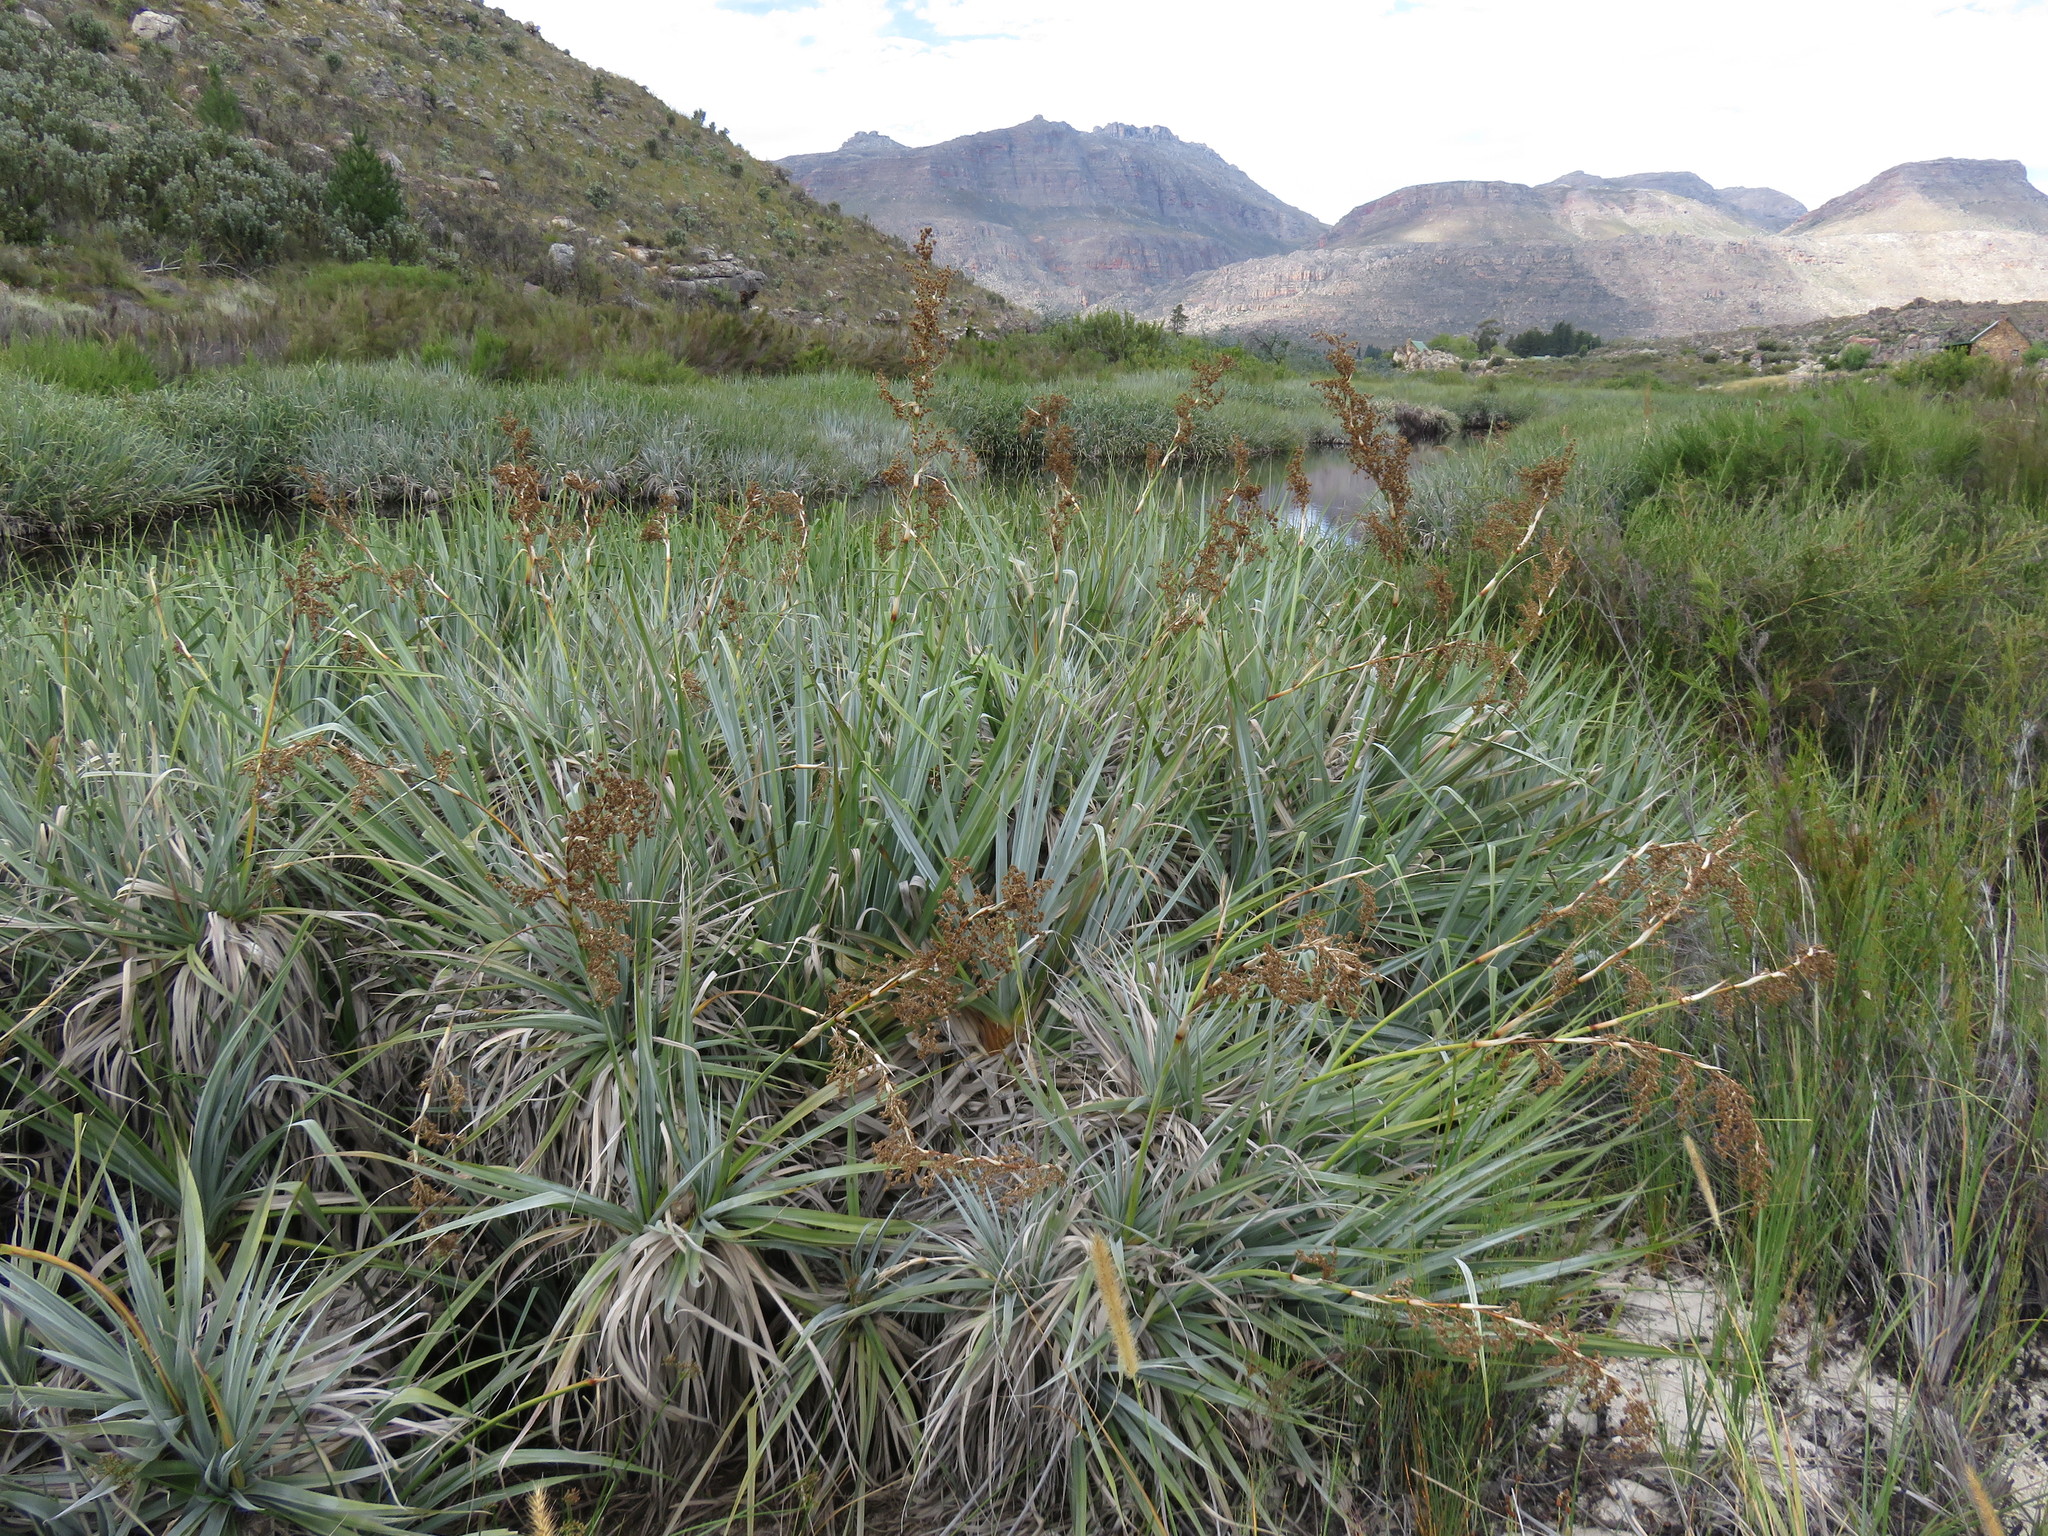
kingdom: Plantae
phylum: Tracheophyta
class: Liliopsida
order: Poales
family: Thurniaceae
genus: Prionium
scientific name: Prionium serratum
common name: Palmiet
